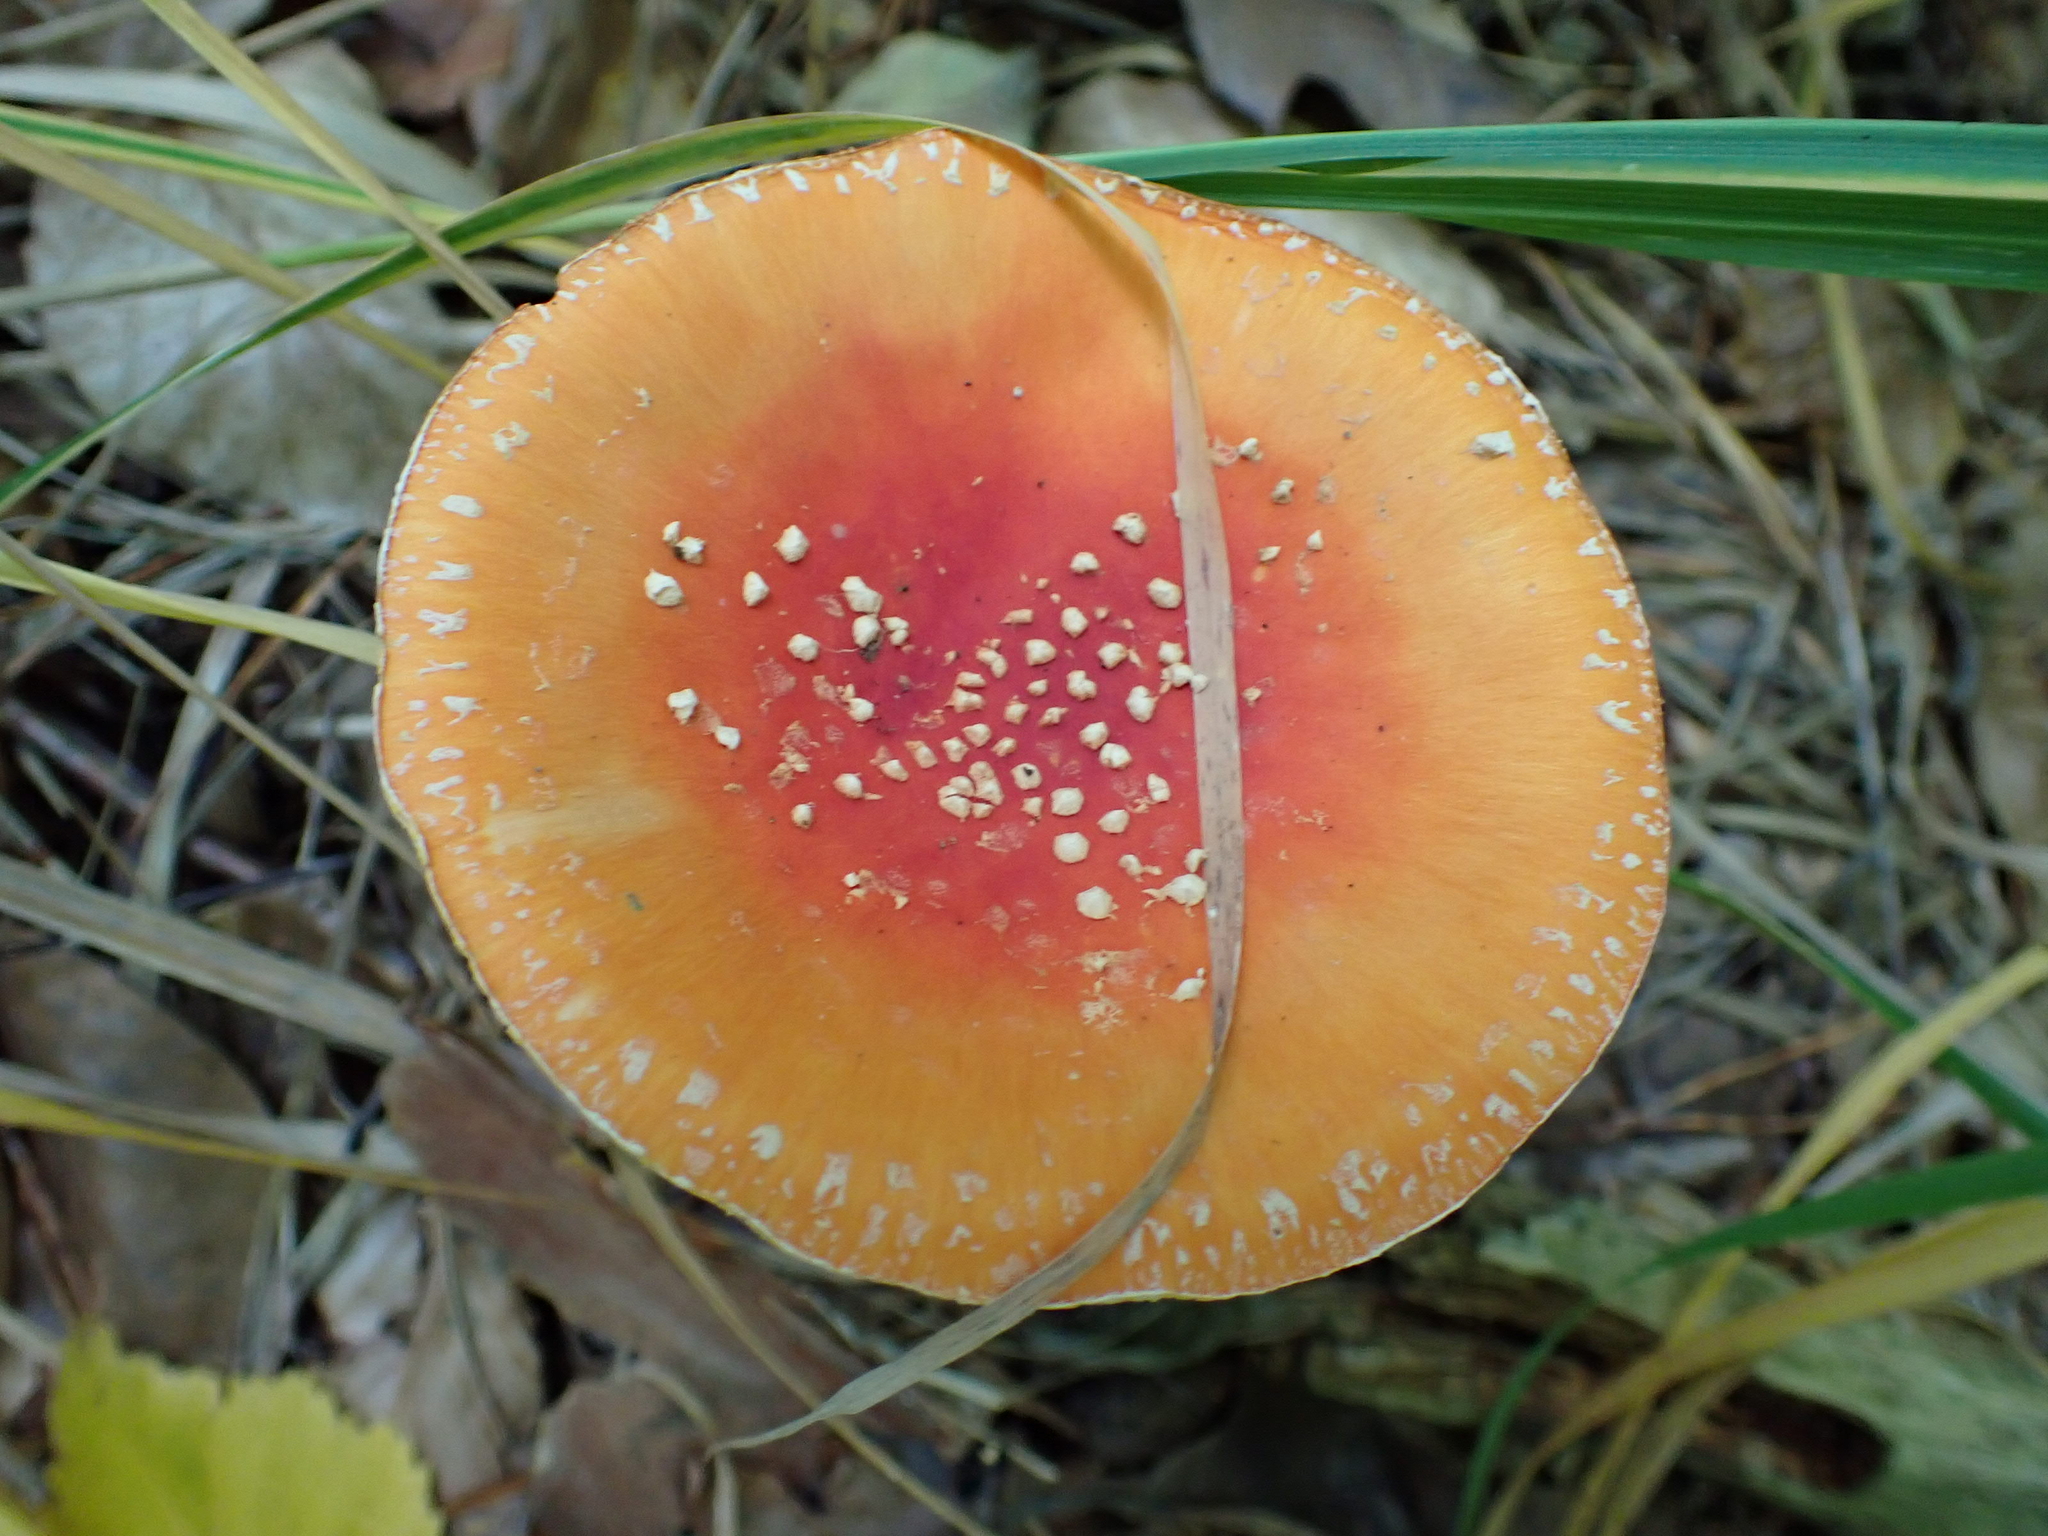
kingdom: Fungi
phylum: Basidiomycota
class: Agaricomycetes
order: Agaricales
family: Amanitaceae
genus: Amanita
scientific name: Amanita muscaria
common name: Fly agaric
